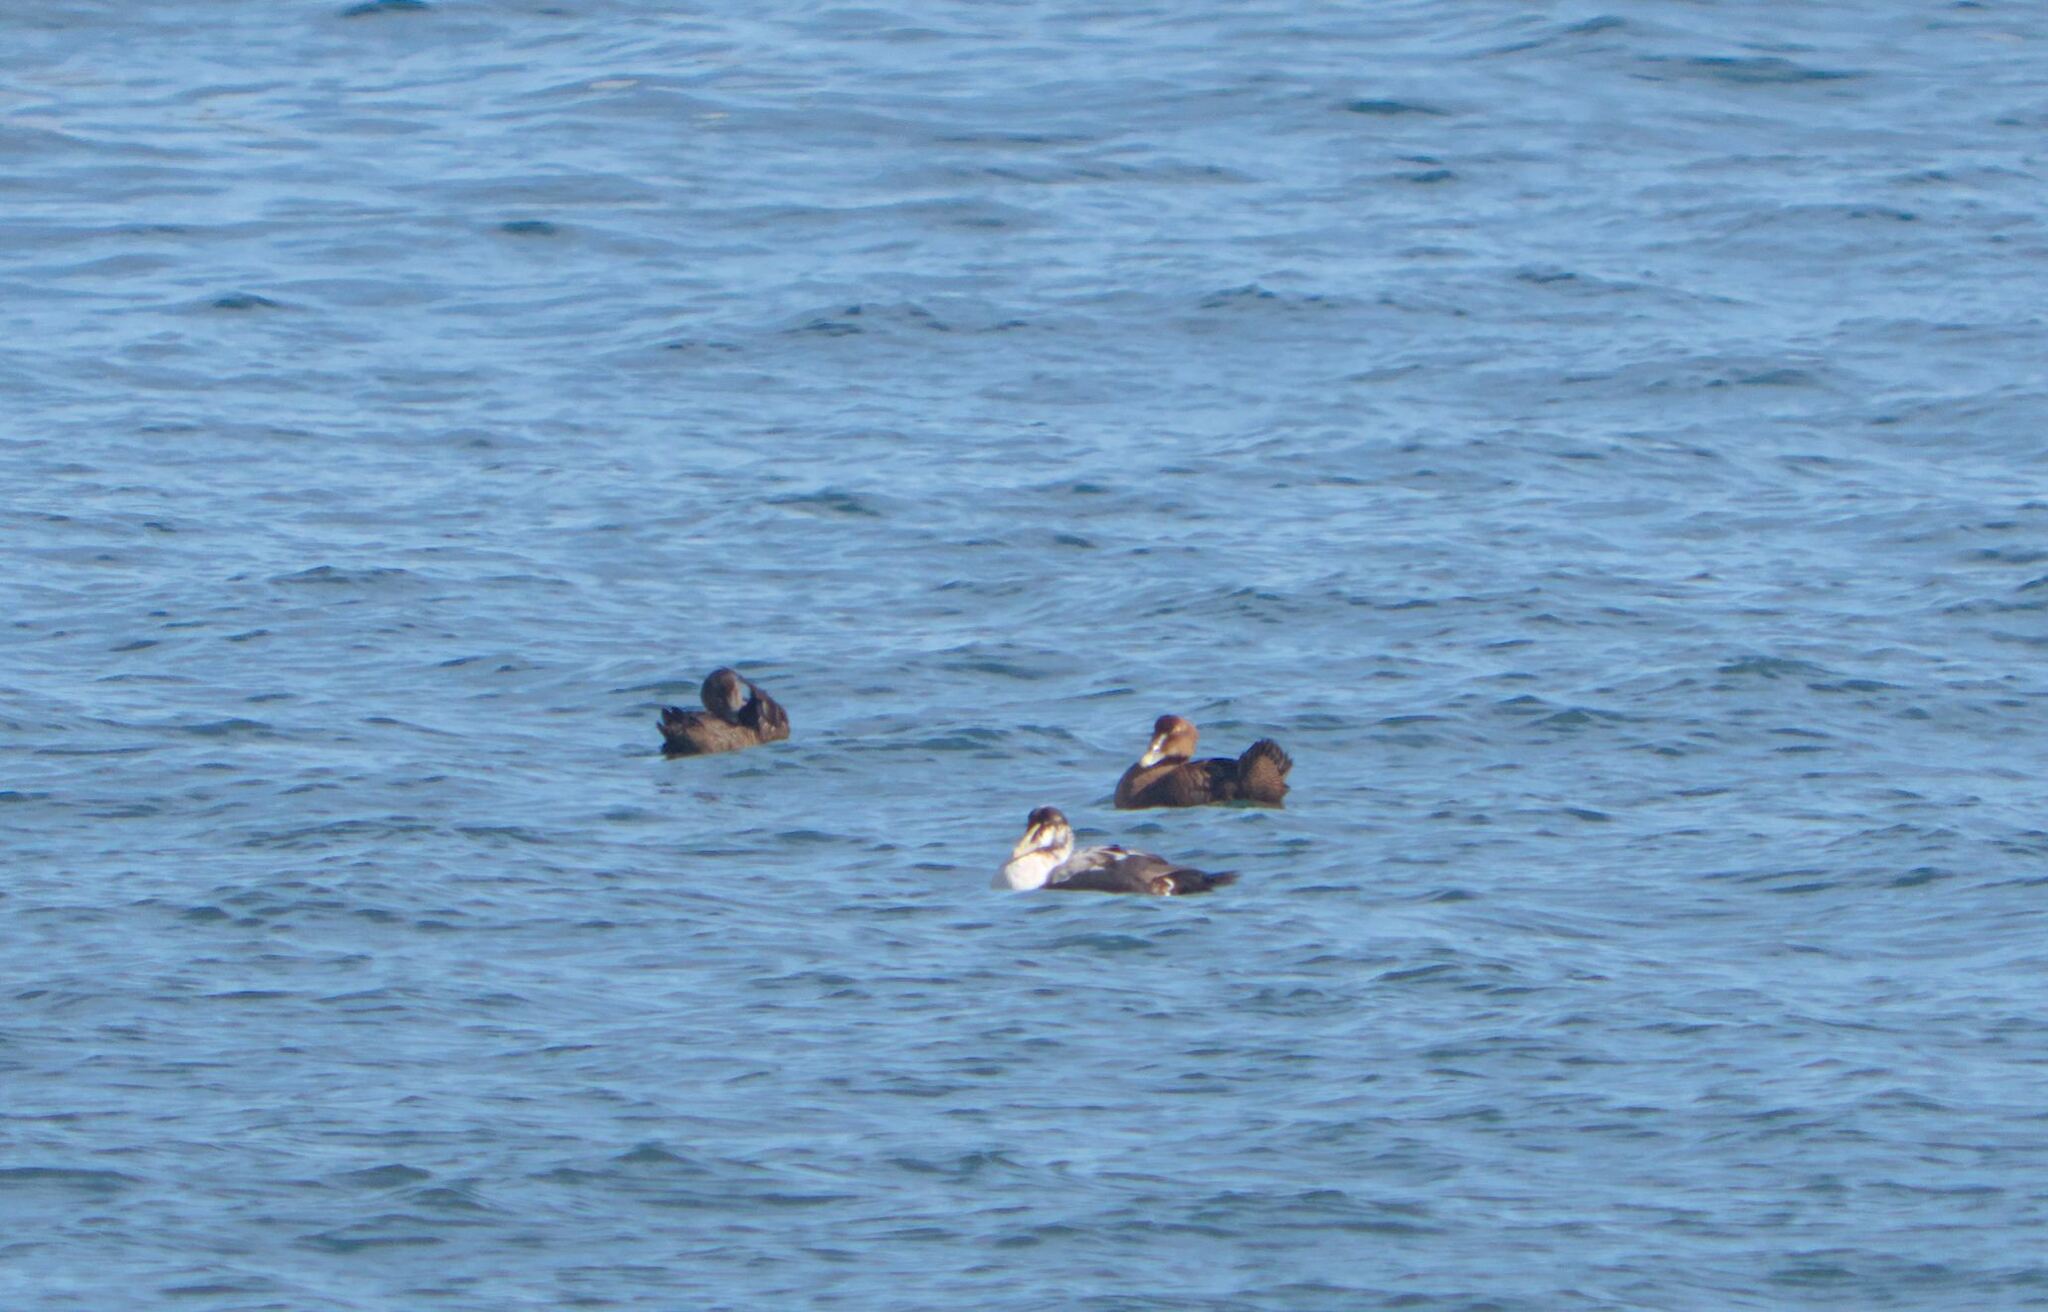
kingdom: Animalia
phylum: Chordata
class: Aves
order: Anseriformes
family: Anatidae
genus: Somateria
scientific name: Somateria mollissima
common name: Common eider
